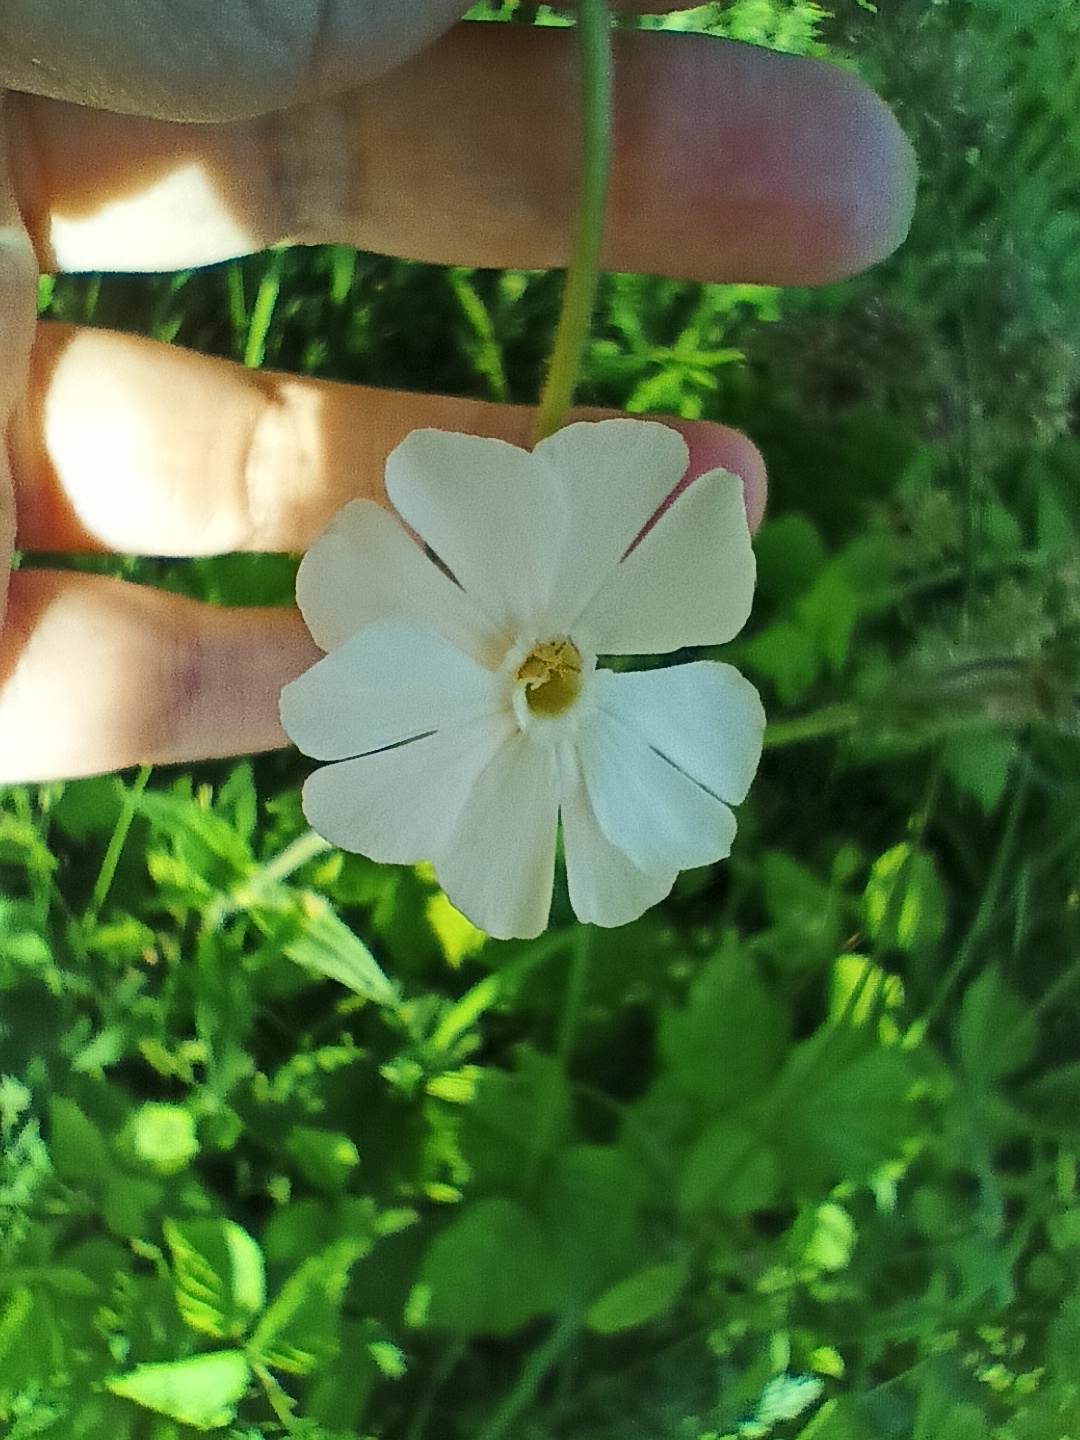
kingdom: Plantae
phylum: Tracheophyta
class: Magnoliopsida
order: Caryophyllales
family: Caryophyllaceae
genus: Silene
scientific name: Silene latifolia
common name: White campion
